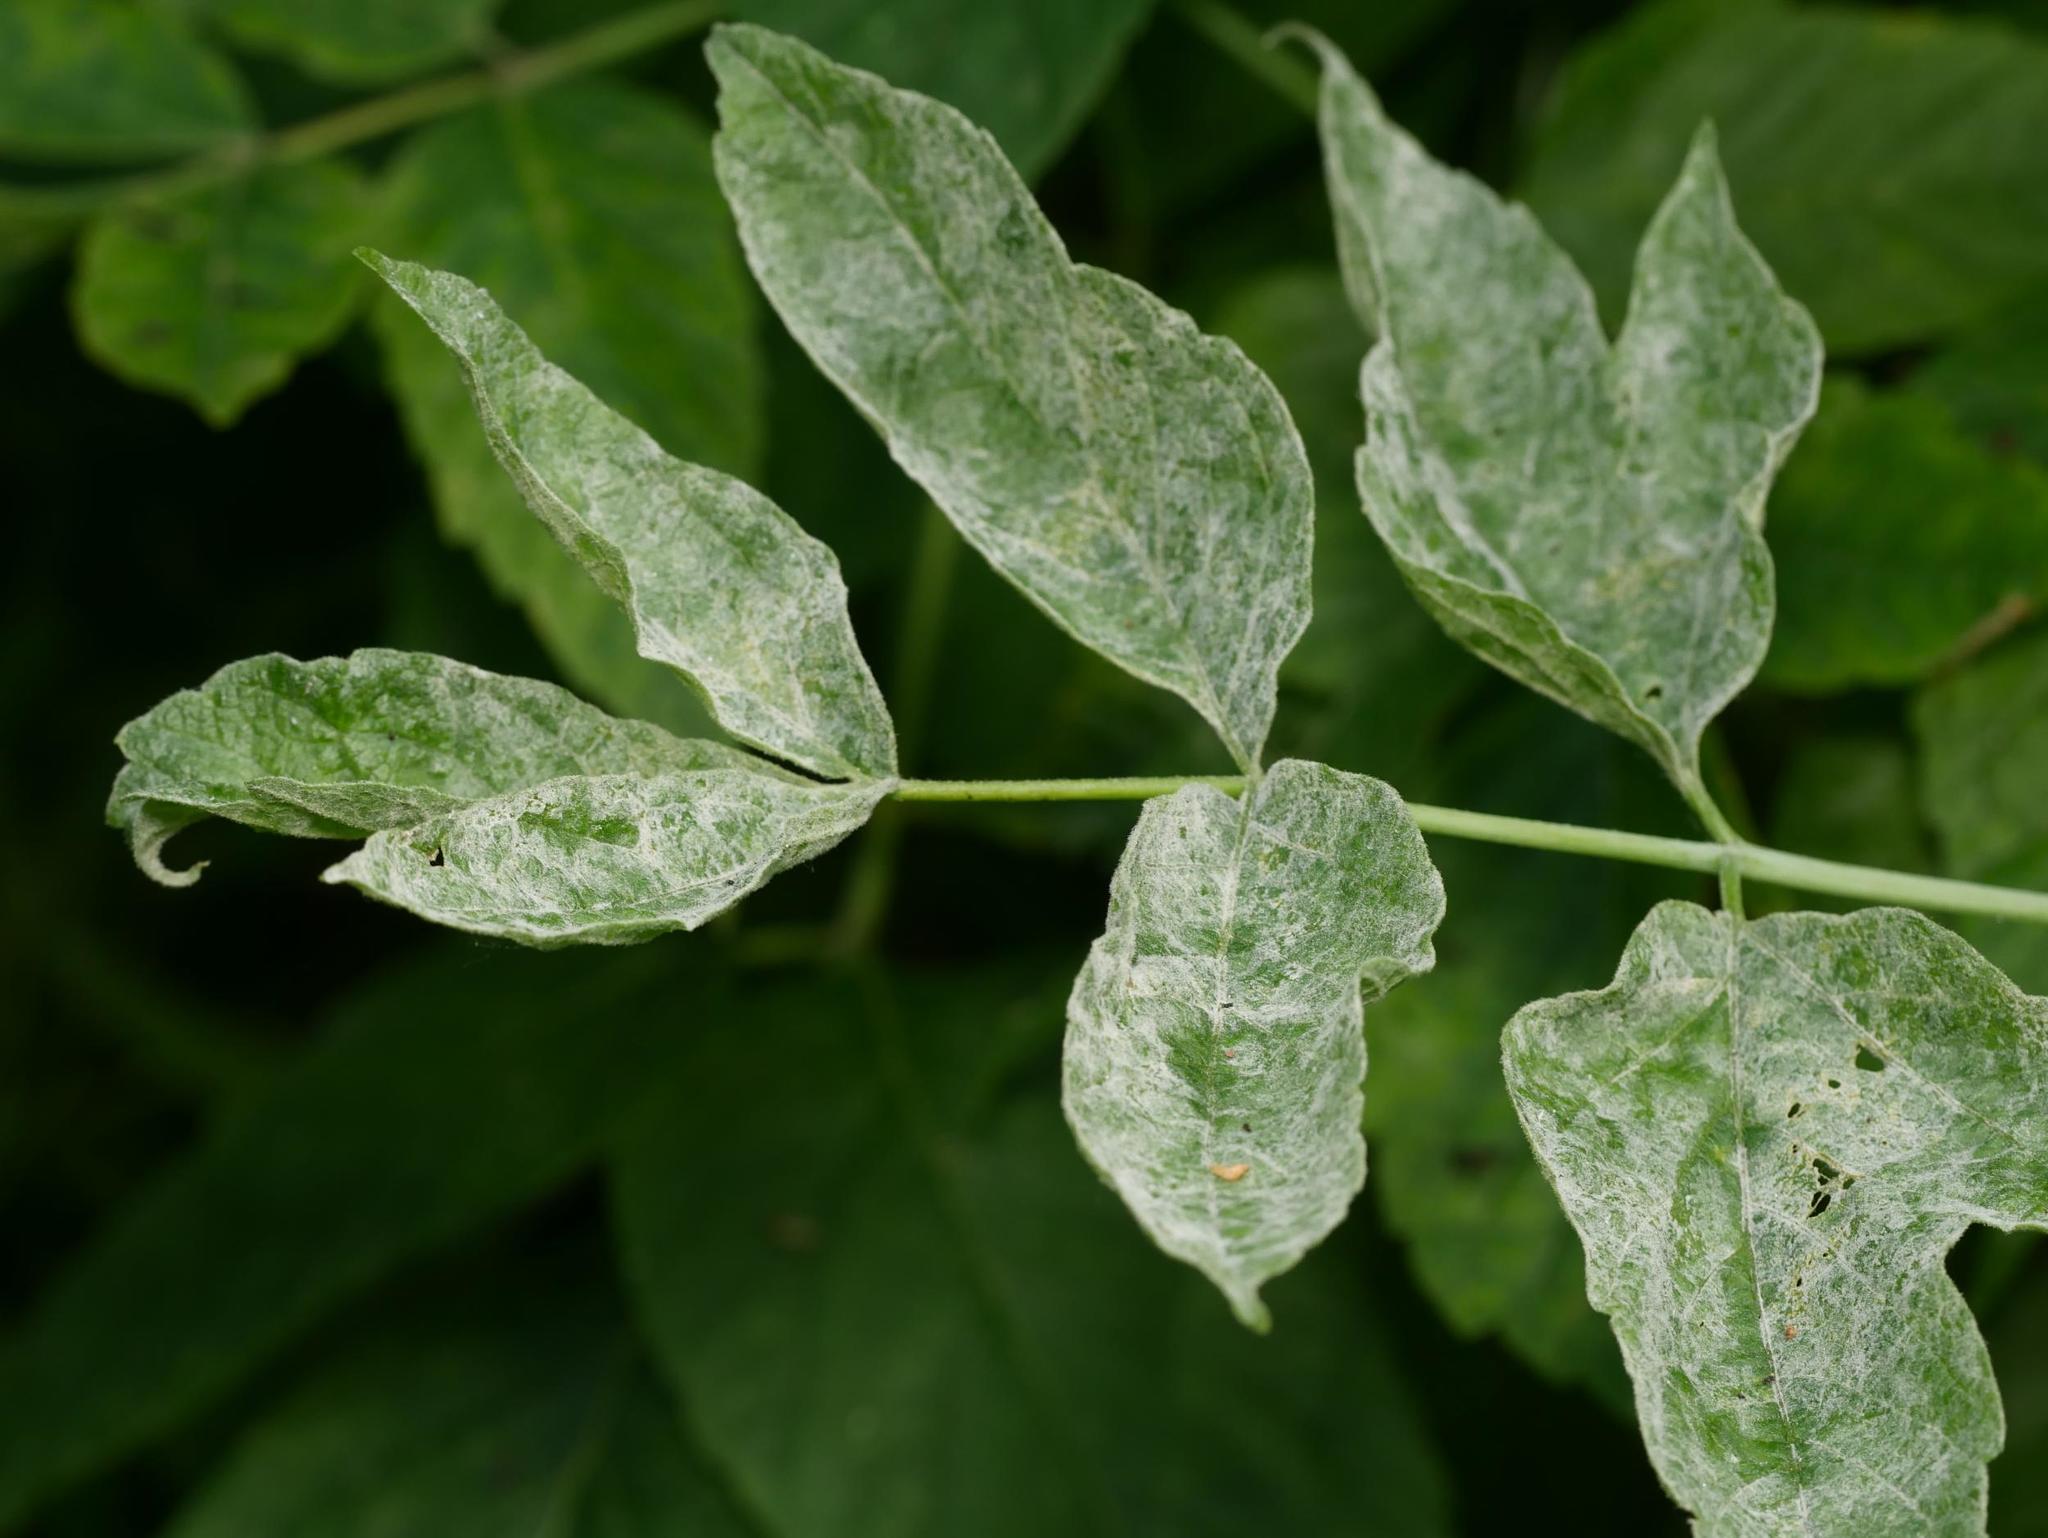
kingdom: Plantae
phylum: Tracheophyta
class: Magnoliopsida
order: Sapindales
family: Sapindaceae
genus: Acer
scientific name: Acer negundo
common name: Ashleaf maple
